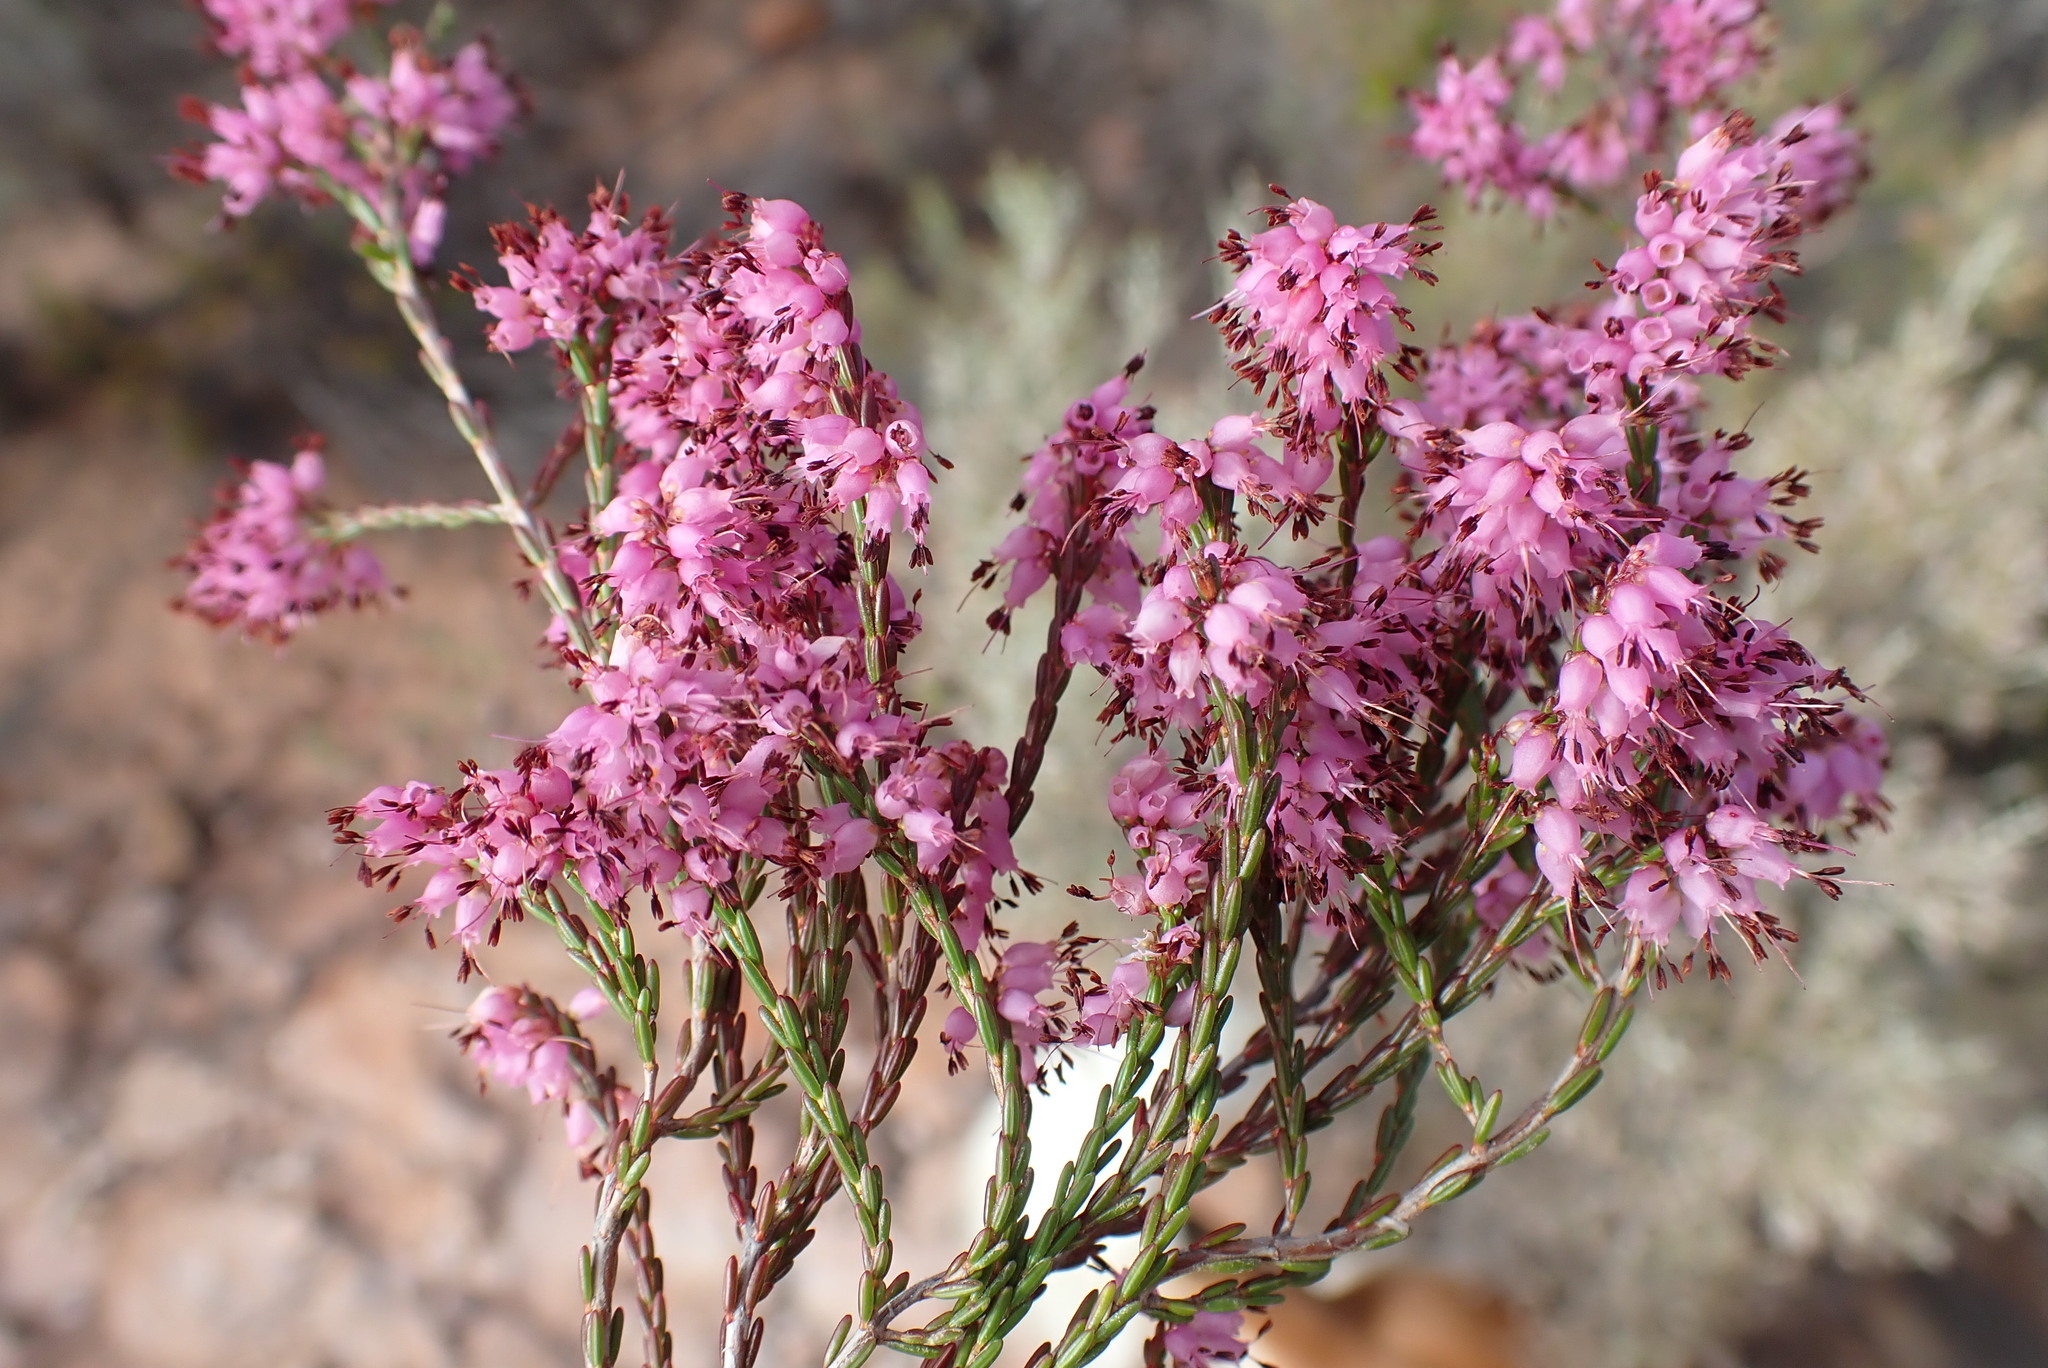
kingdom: Plantae
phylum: Tracheophyta
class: Magnoliopsida
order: Ericales
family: Ericaceae
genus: Erica
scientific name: Erica rosacea
